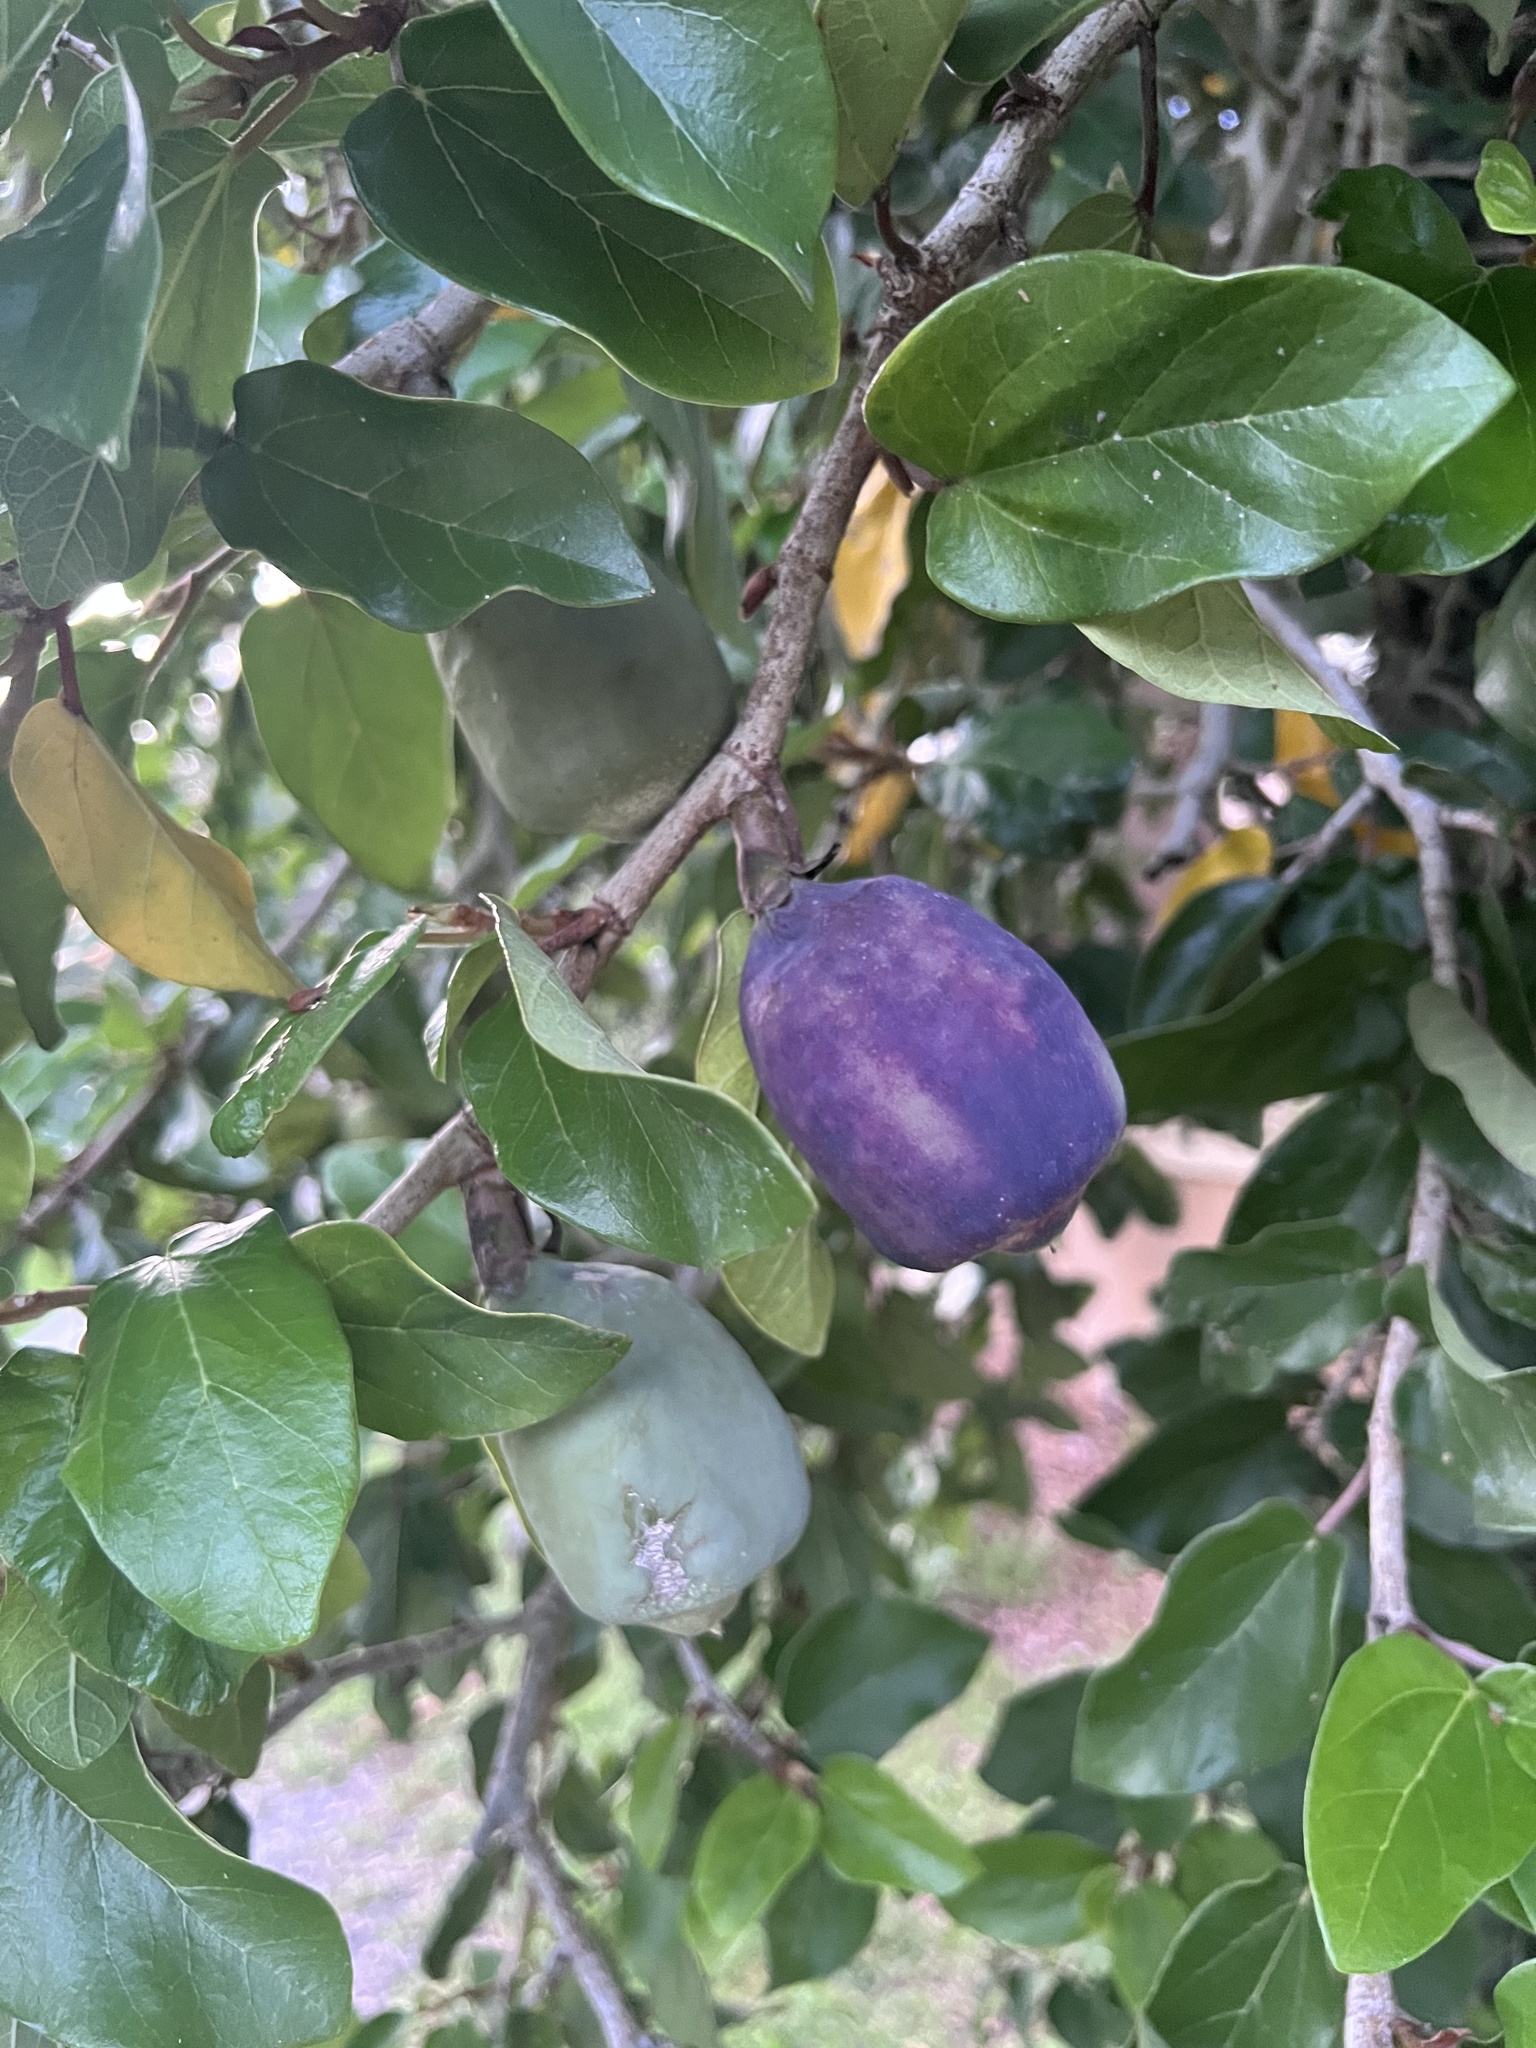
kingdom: Plantae
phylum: Tracheophyta
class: Magnoliopsida
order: Rosales
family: Moraceae
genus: Ficus
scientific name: Ficus pumila
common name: Climbingfig
